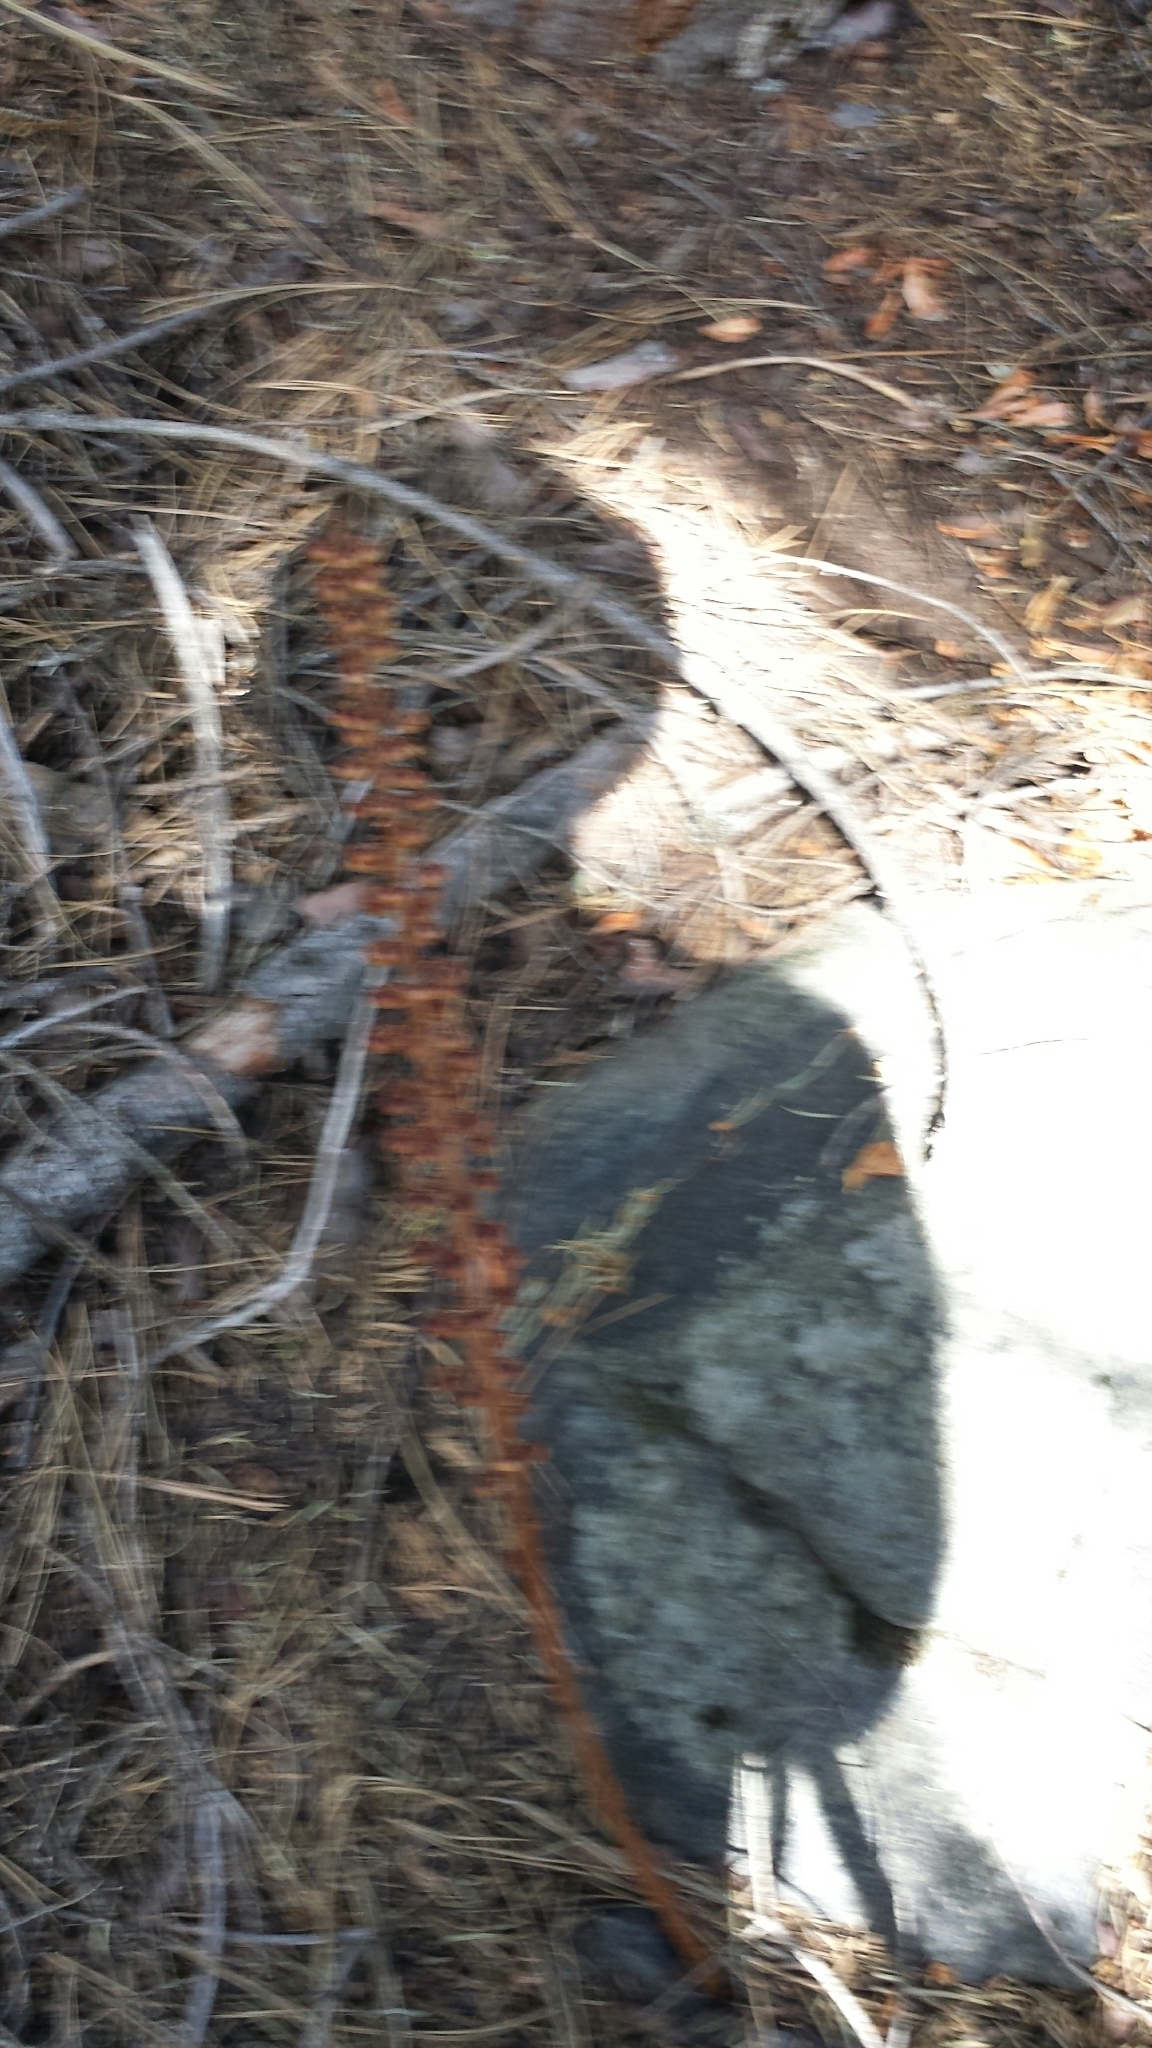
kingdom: Plantae
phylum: Tracheophyta
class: Magnoliopsida
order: Ericales
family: Ericaceae
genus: Pterospora
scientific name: Pterospora andromedea
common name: Giant bird's-nest
